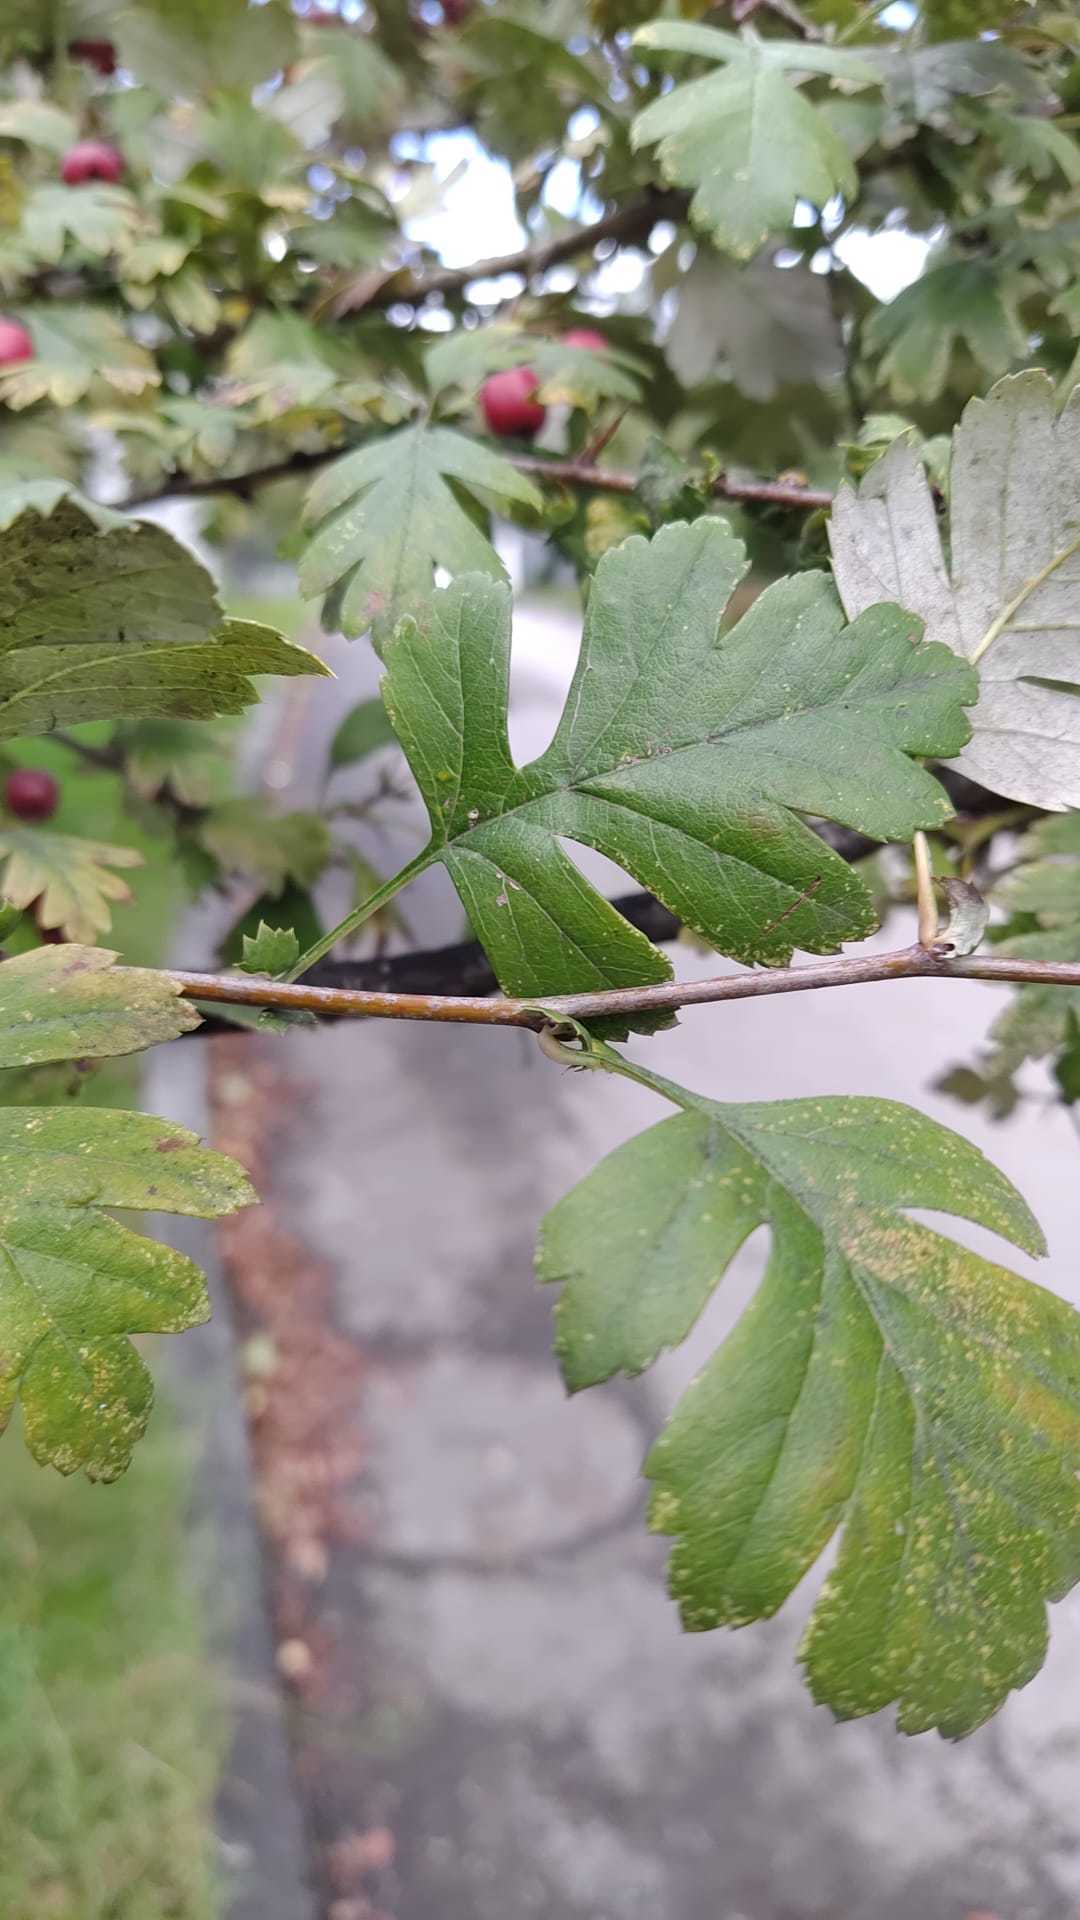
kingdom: Plantae
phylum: Tracheophyta
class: Magnoliopsida
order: Rosales
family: Rosaceae
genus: Crataegus
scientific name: Crataegus monogyna
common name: Hawthorn
